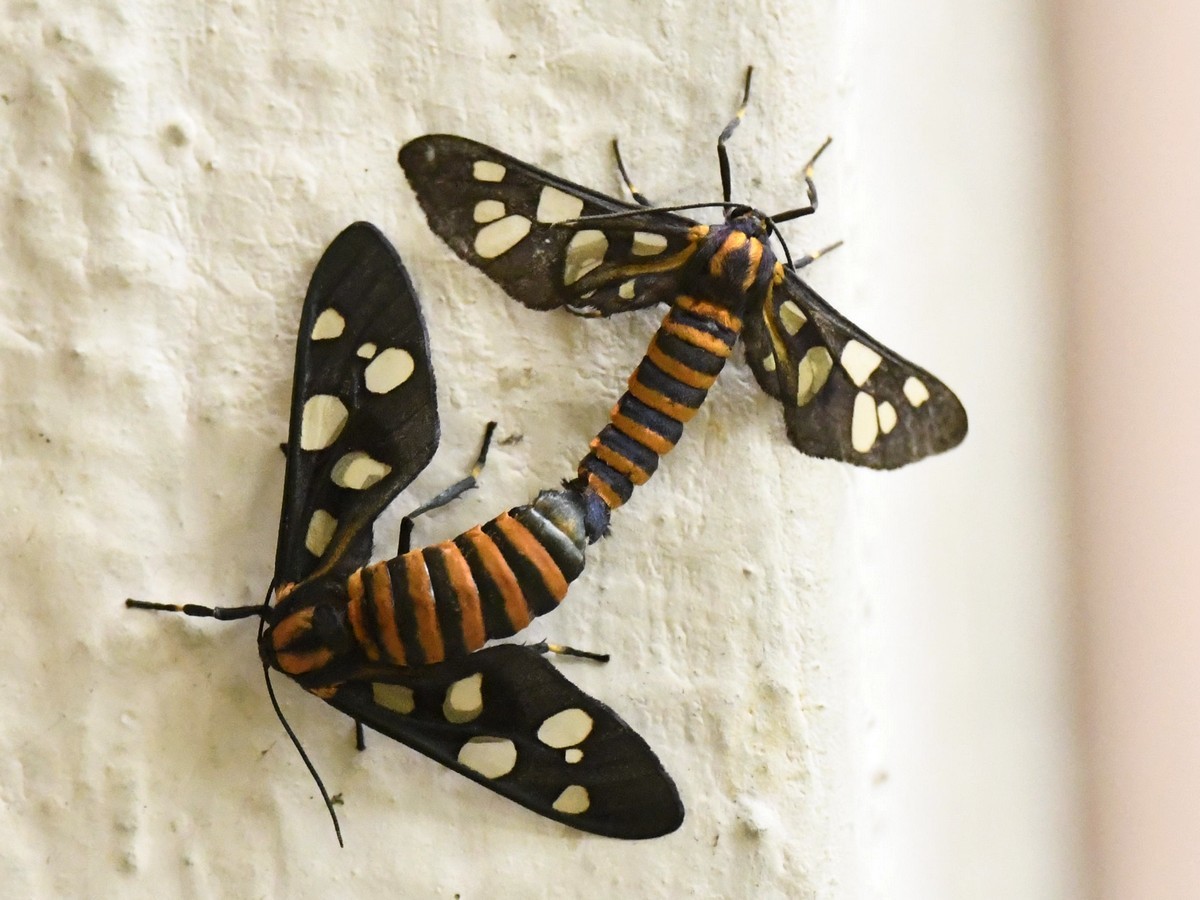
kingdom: Animalia
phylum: Arthropoda
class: Insecta
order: Lepidoptera
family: Erebidae
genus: Amata
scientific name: Amata passalis
